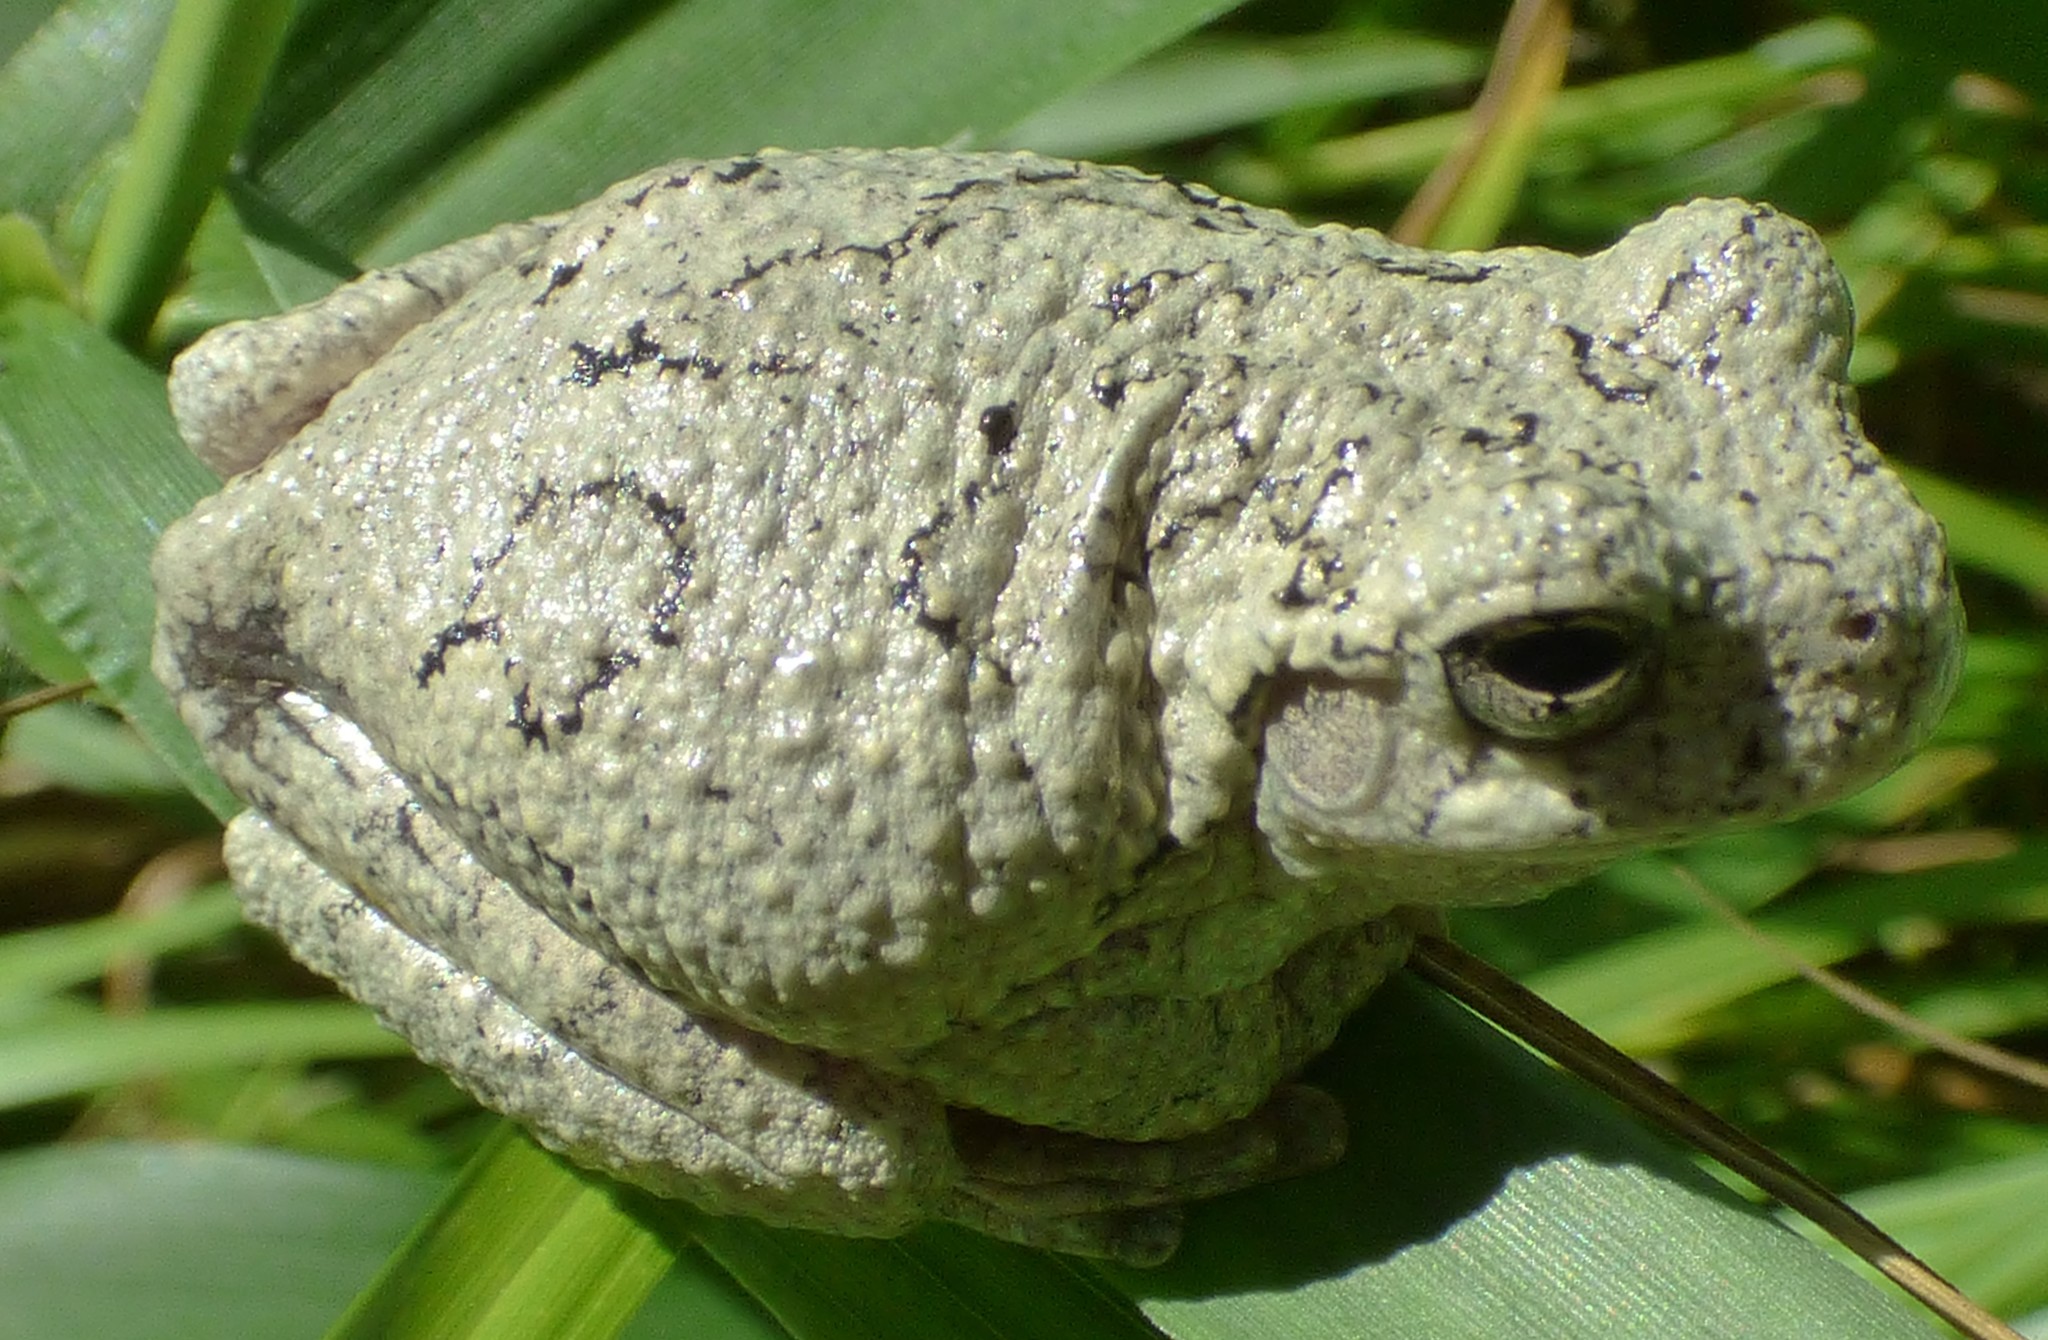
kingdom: Animalia
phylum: Chordata
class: Amphibia
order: Anura
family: Hylidae
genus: Dryophytes
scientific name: Dryophytes chrysoscelis
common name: Cope's gray treefrog
